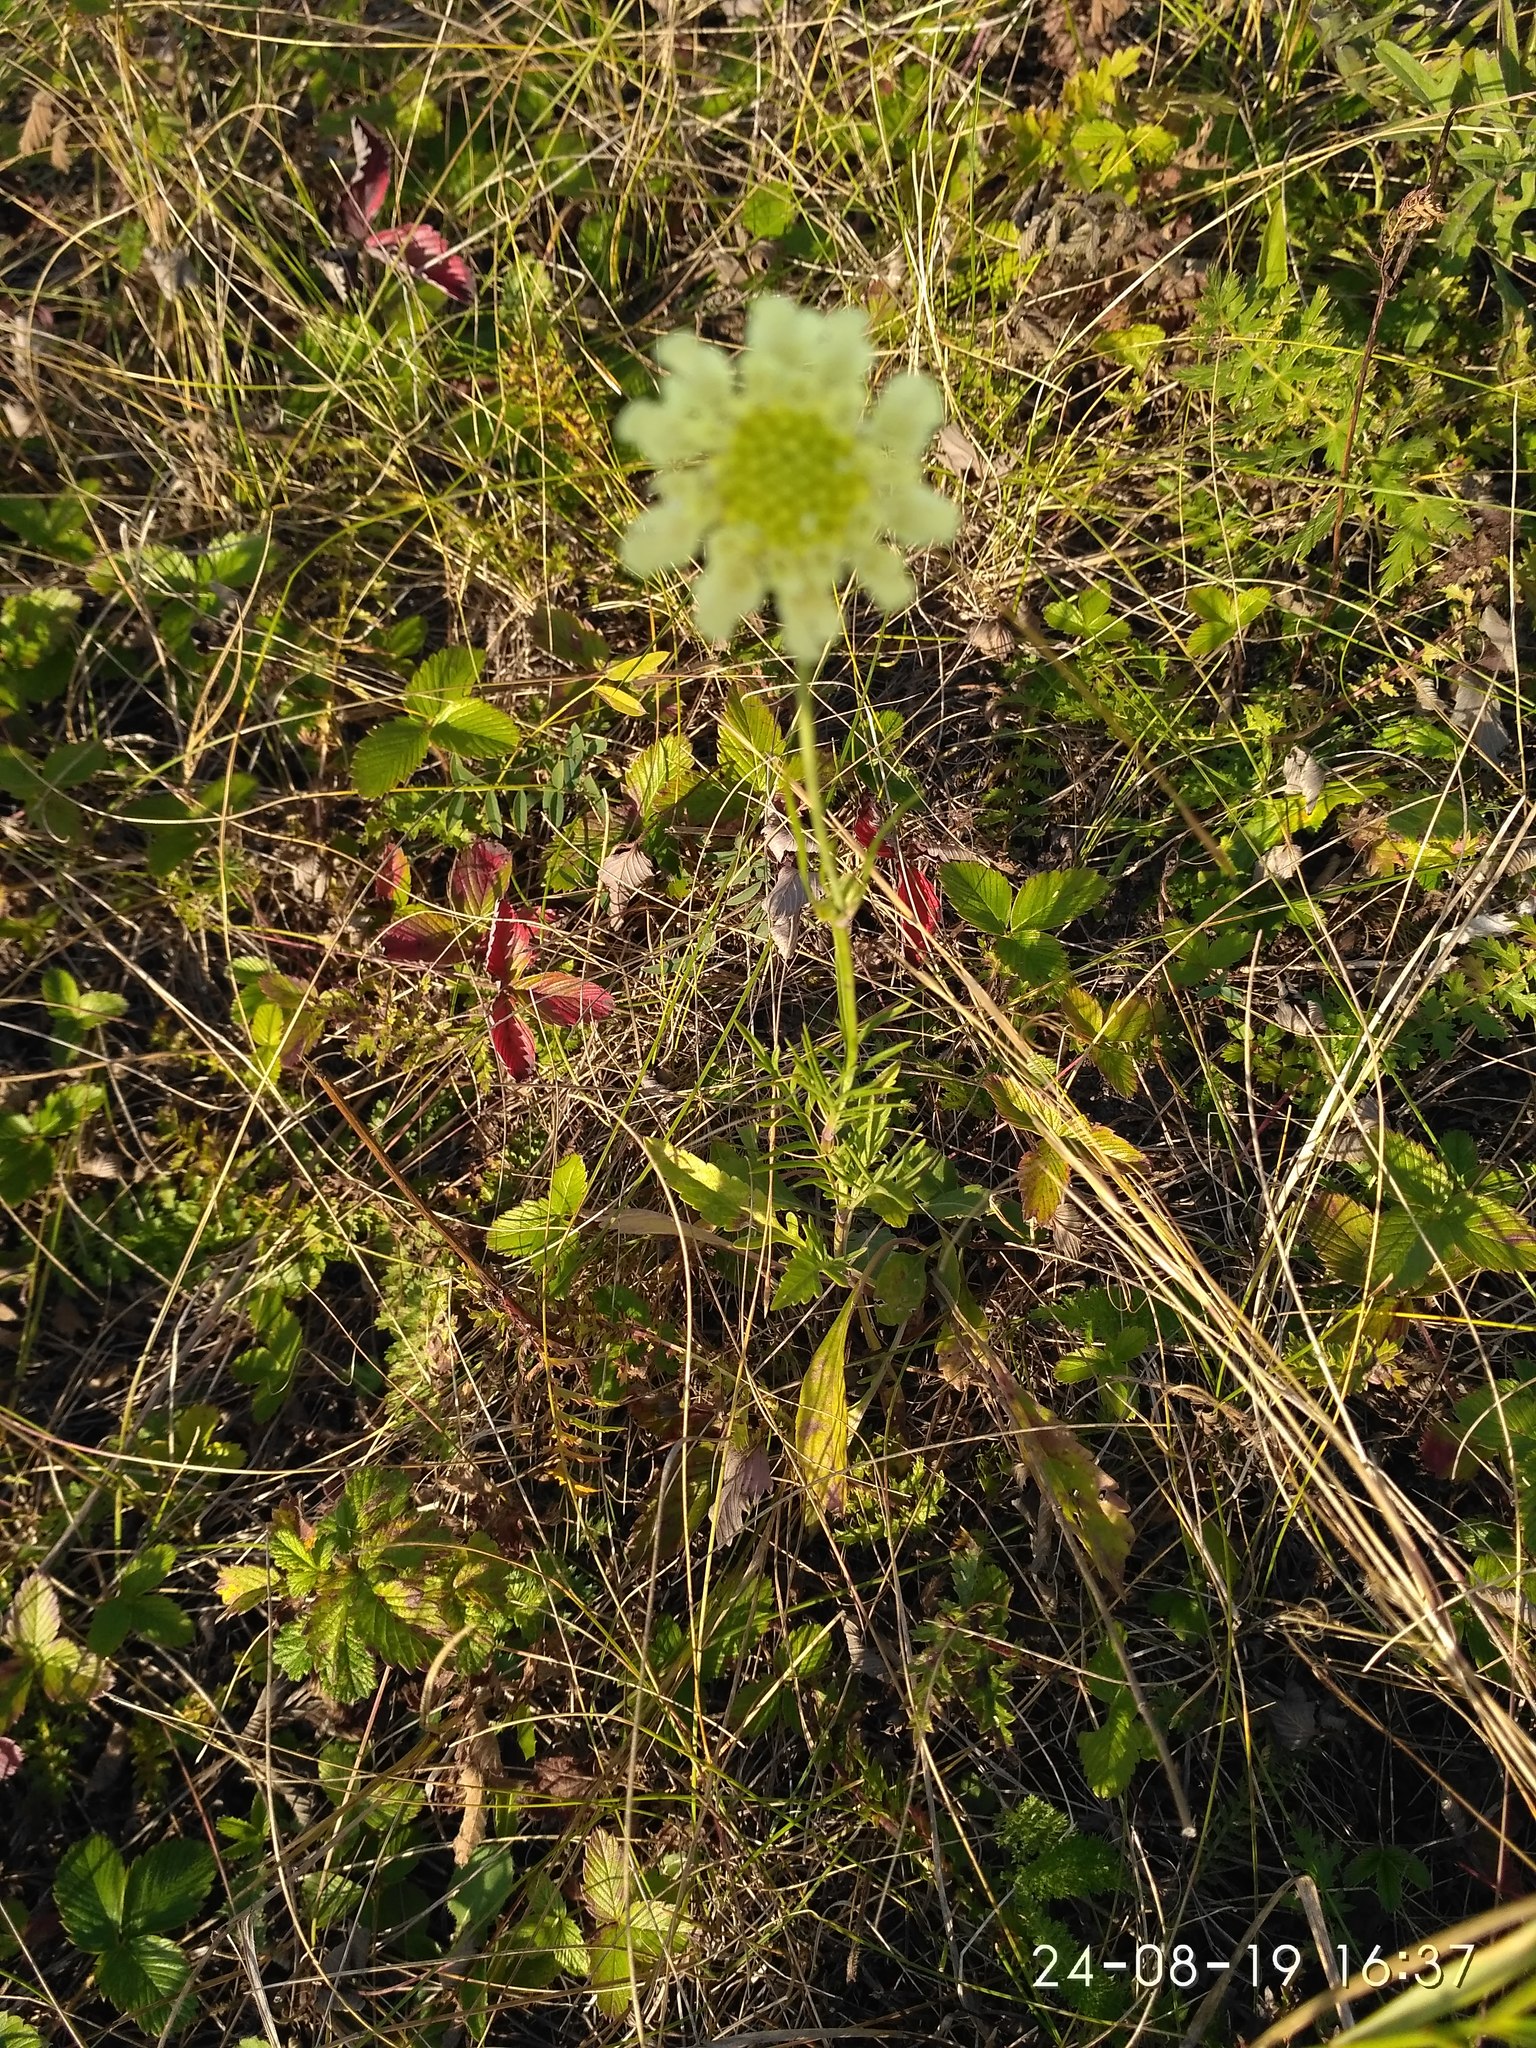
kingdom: Plantae
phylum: Tracheophyta
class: Magnoliopsida
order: Dipsacales
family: Caprifoliaceae
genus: Scabiosa
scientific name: Scabiosa ochroleuca
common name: Cream pincushions
